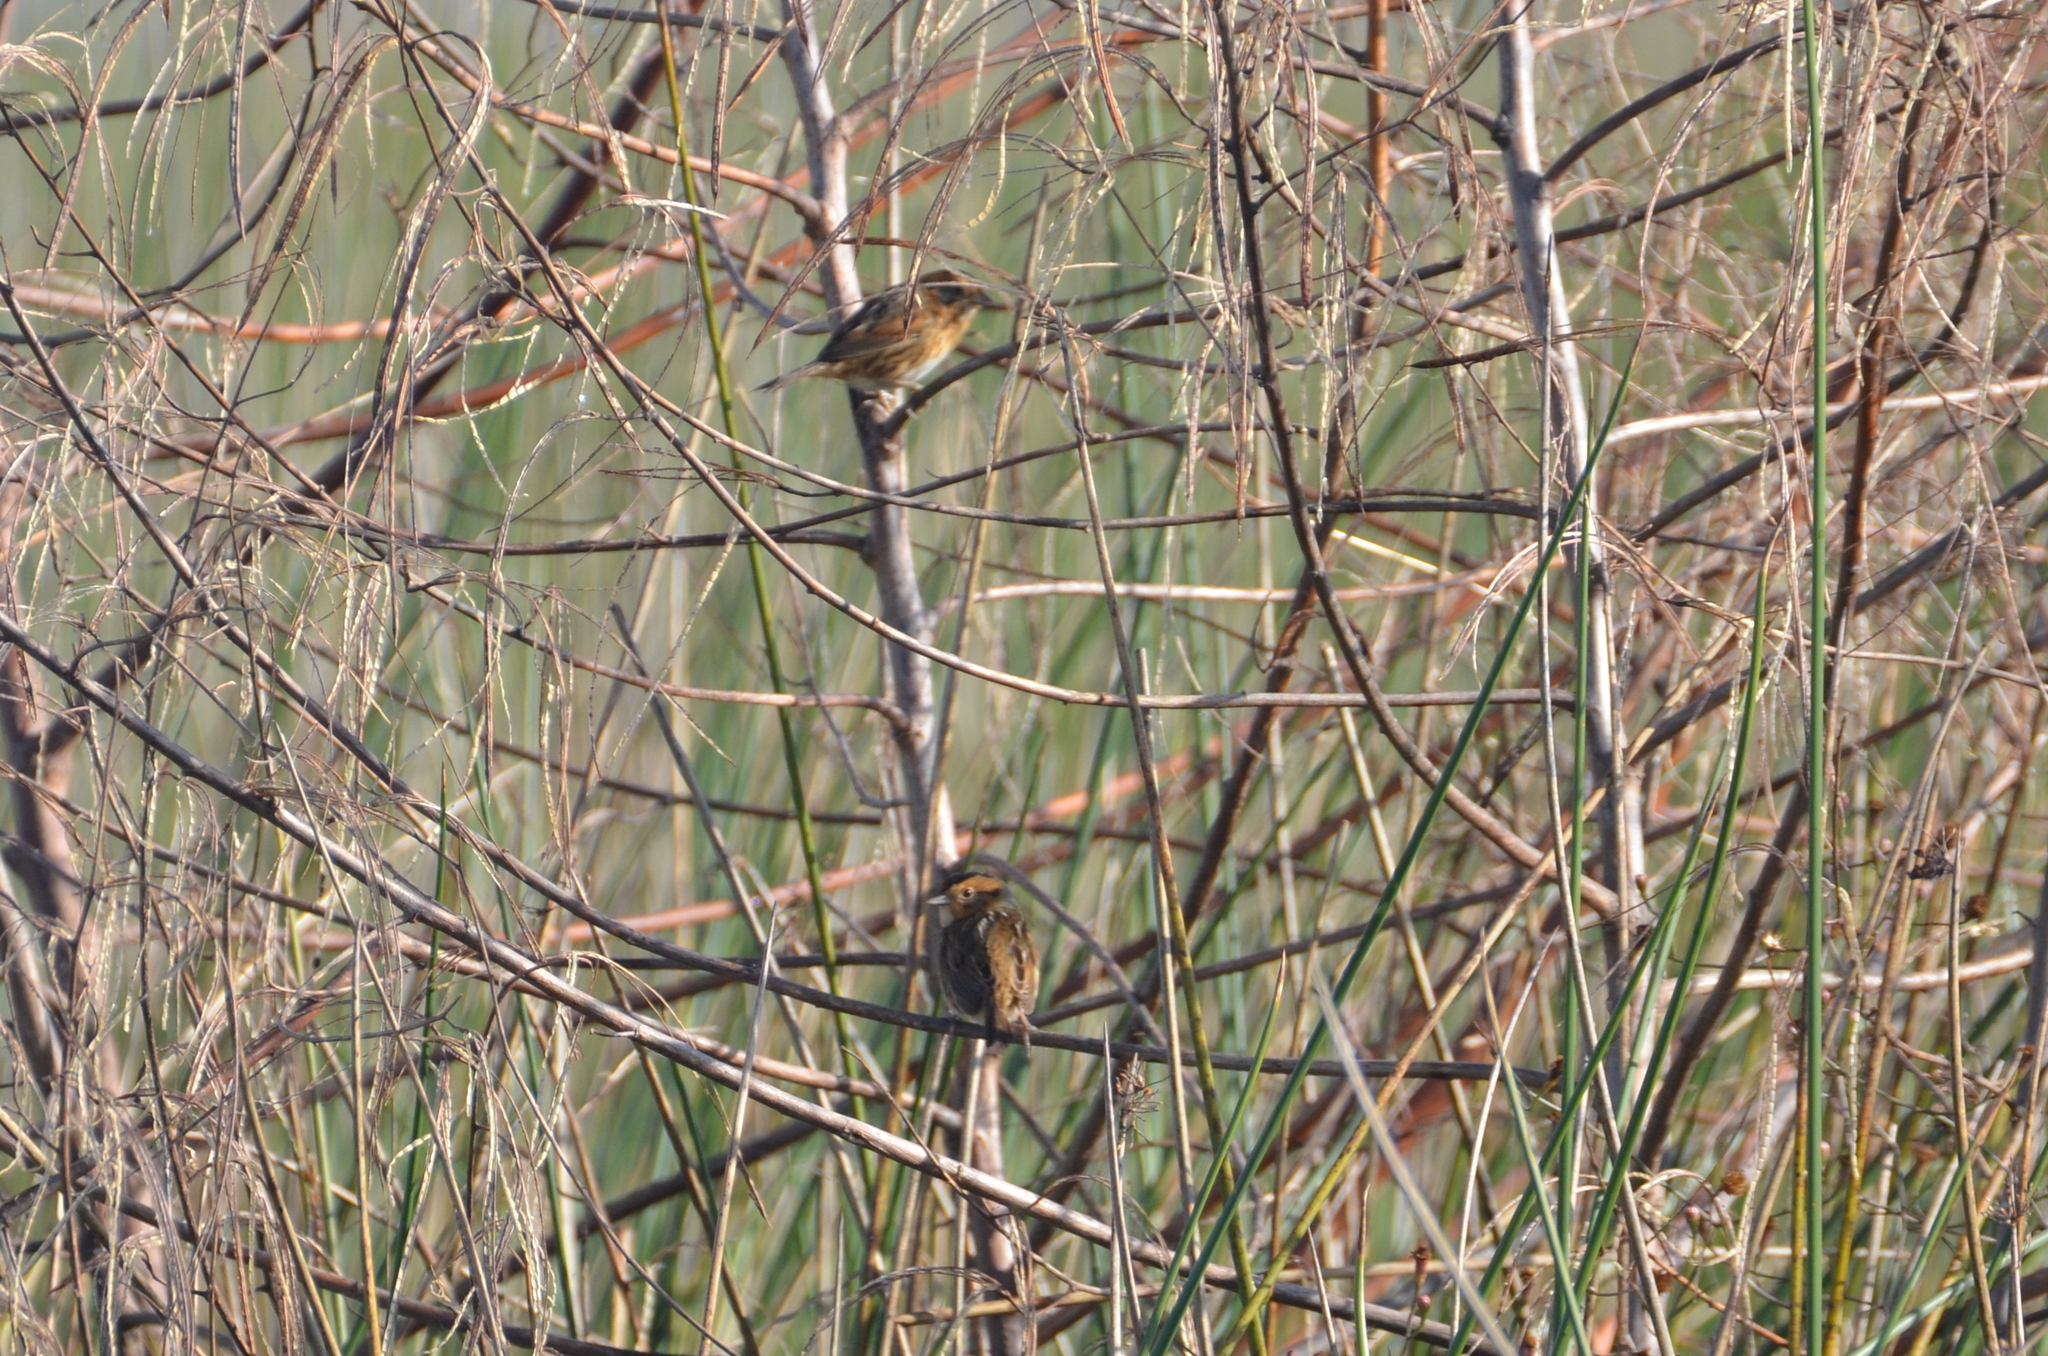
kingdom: Animalia
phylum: Chordata
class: Aves
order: Passeriformes
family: Passerellidae
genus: Ammospiza
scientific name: Ammospiza nelsoni
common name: Nelson's sparrow
